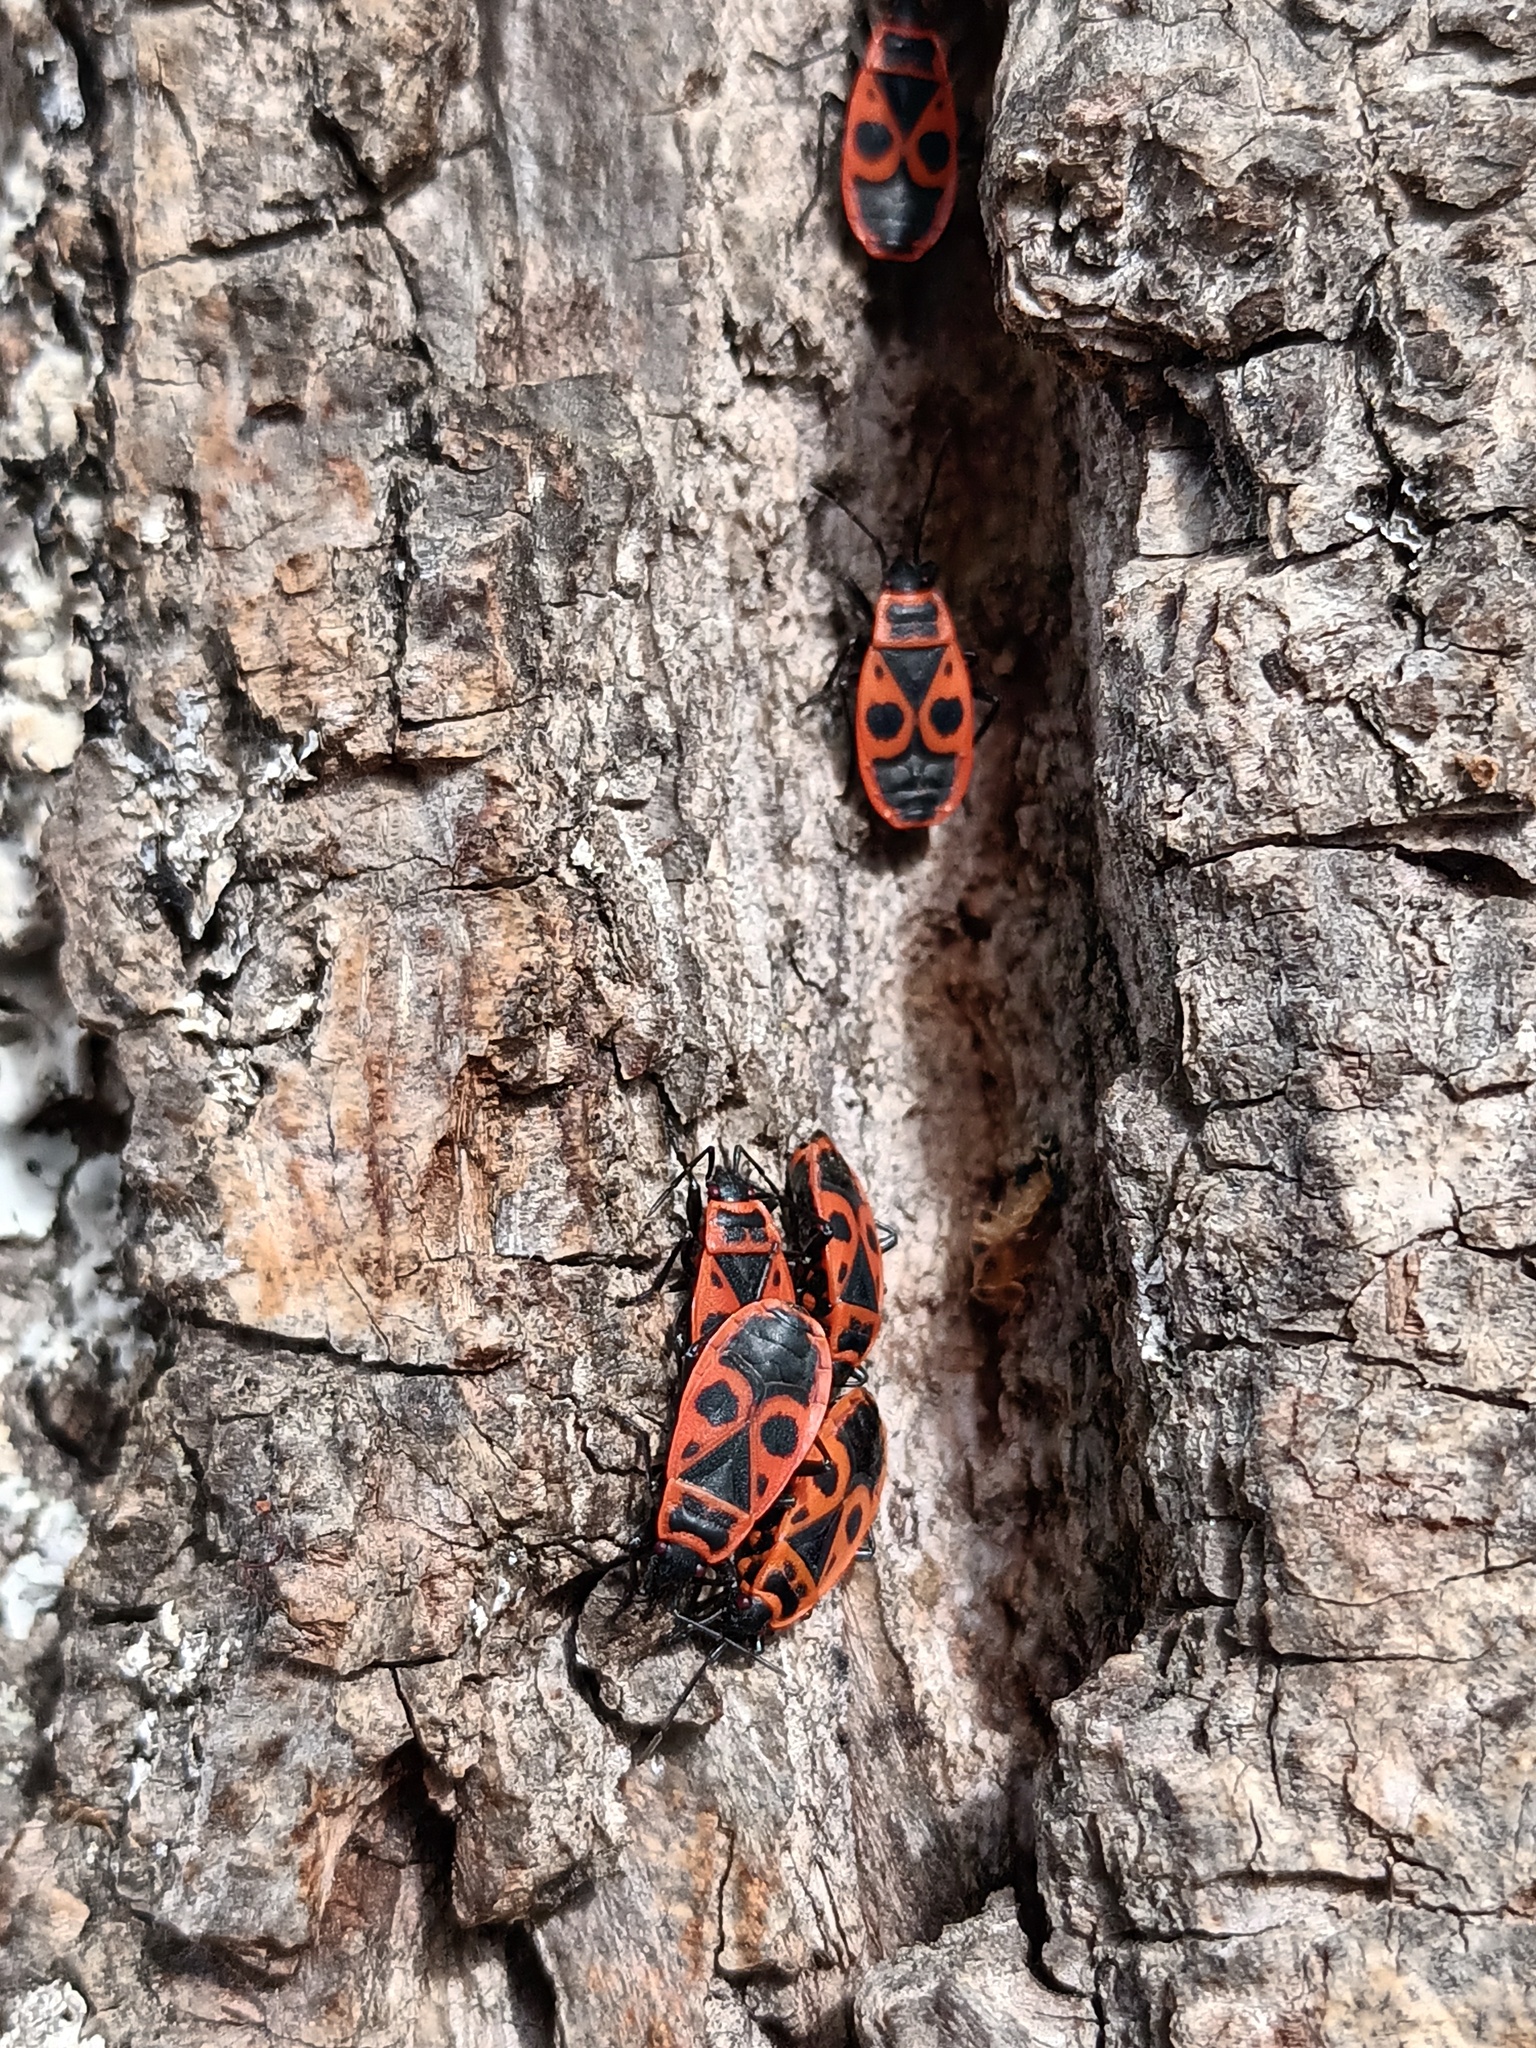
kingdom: Animalia
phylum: Arthropoda
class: Insecta
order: Hemiptera
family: Pyrrhocoridae
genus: Pyrrhocoris
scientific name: Pyrrhocoris apterus
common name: Firebug
